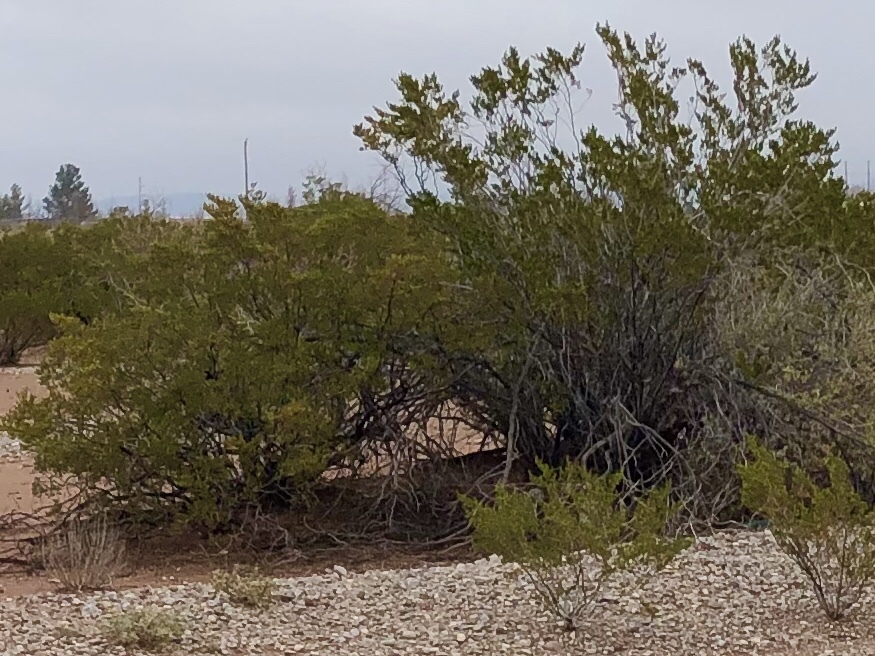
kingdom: Plantae
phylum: Tracheophyta
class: Magnoliopsida
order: Zygophyllales
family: Zygophyllaceae
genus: Larrea
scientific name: Larrea tridentata
